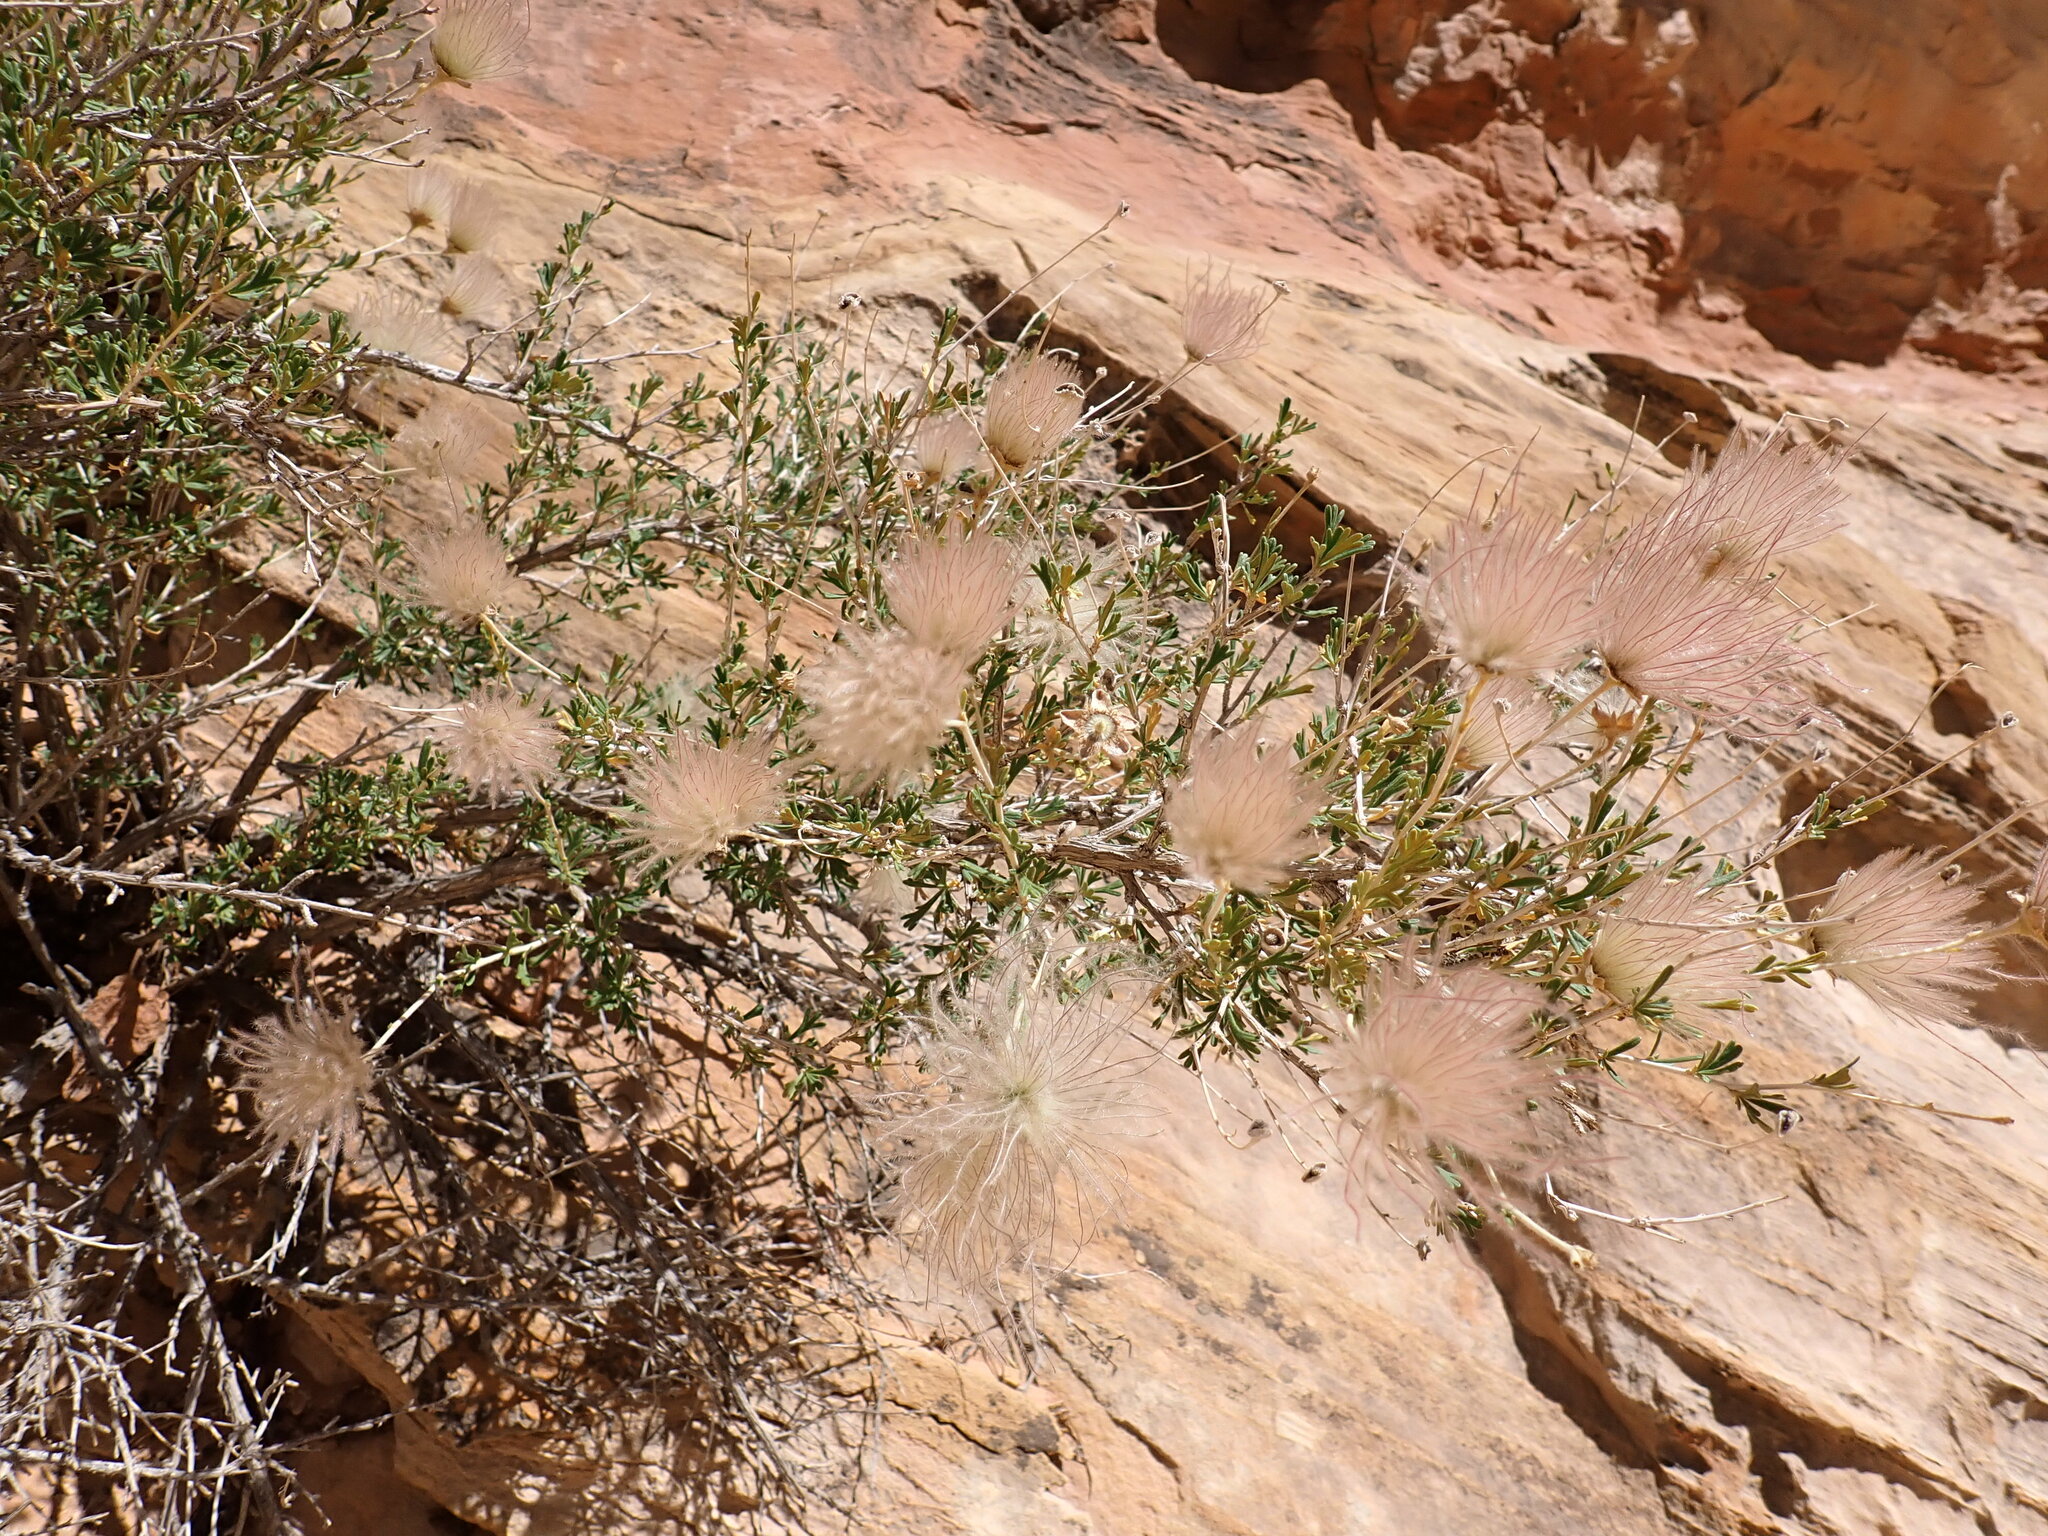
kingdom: Plantae
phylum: Tracheophyta
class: Magnoliopsida
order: Rosales
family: Rosaceae
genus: Fallugia
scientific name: Fallugia paradoxa
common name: Apache-plume
